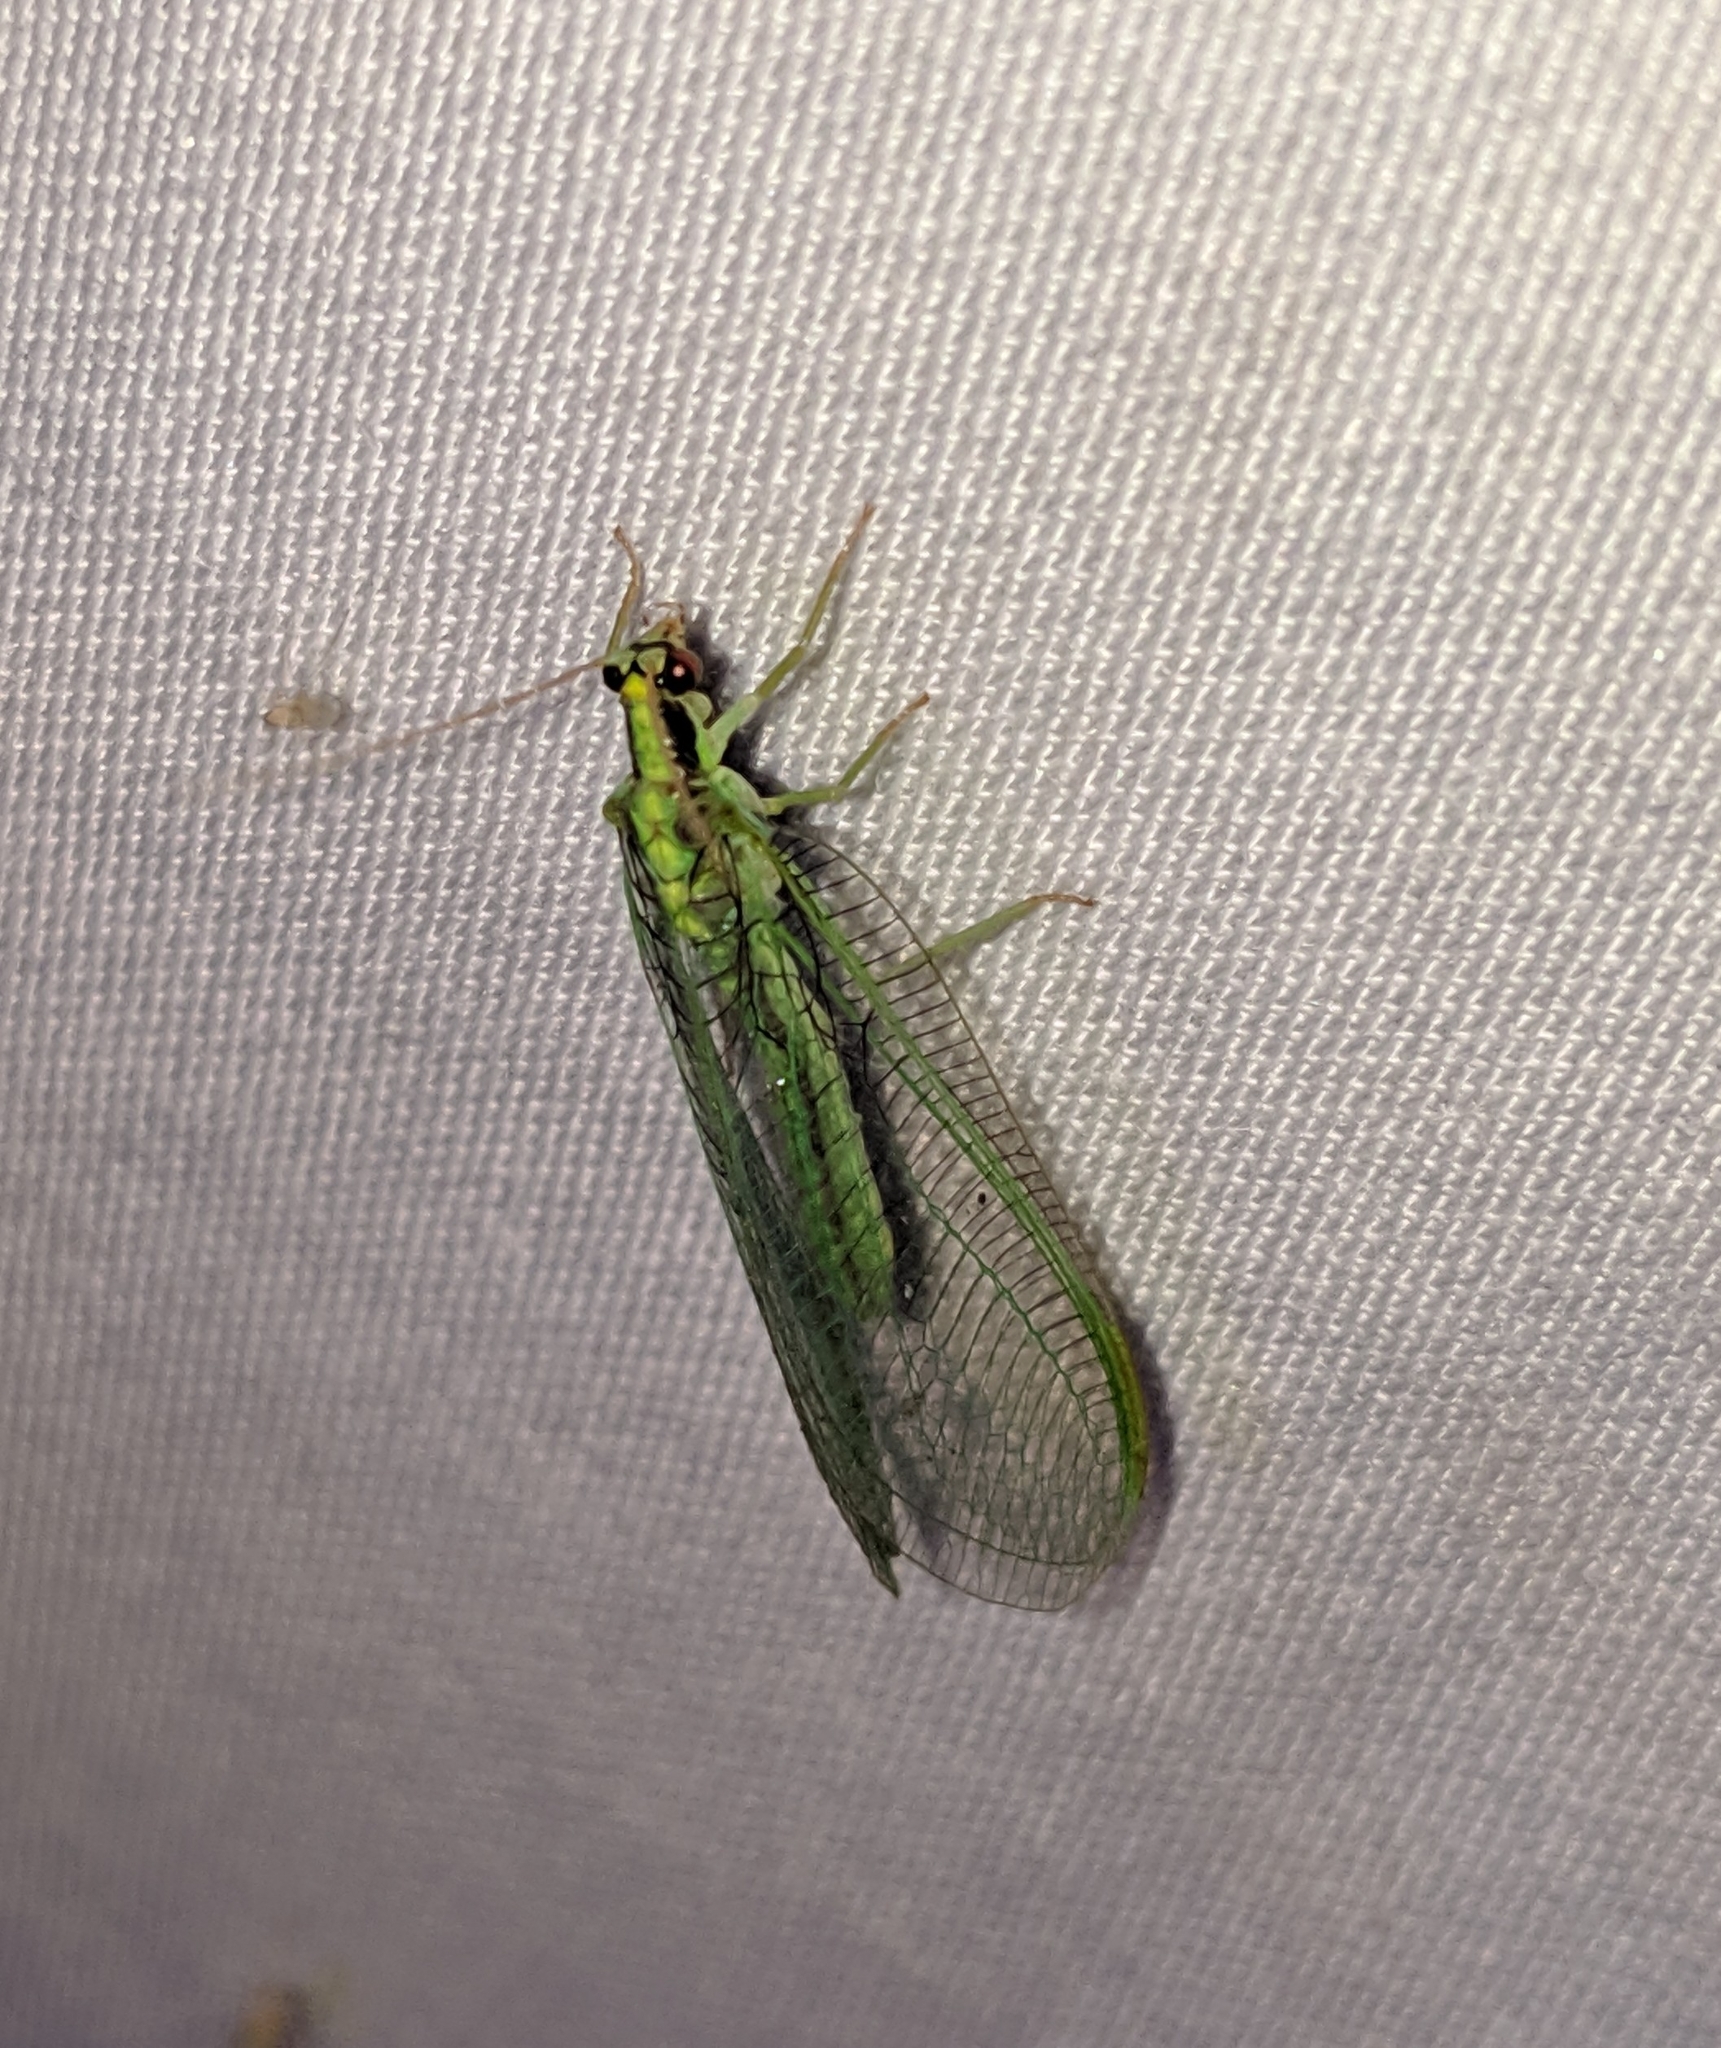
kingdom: Animalia
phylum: Arthropoda
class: Insecta
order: Neuroptera
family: Chrysopidae
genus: Nineta
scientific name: Nineta gravida
